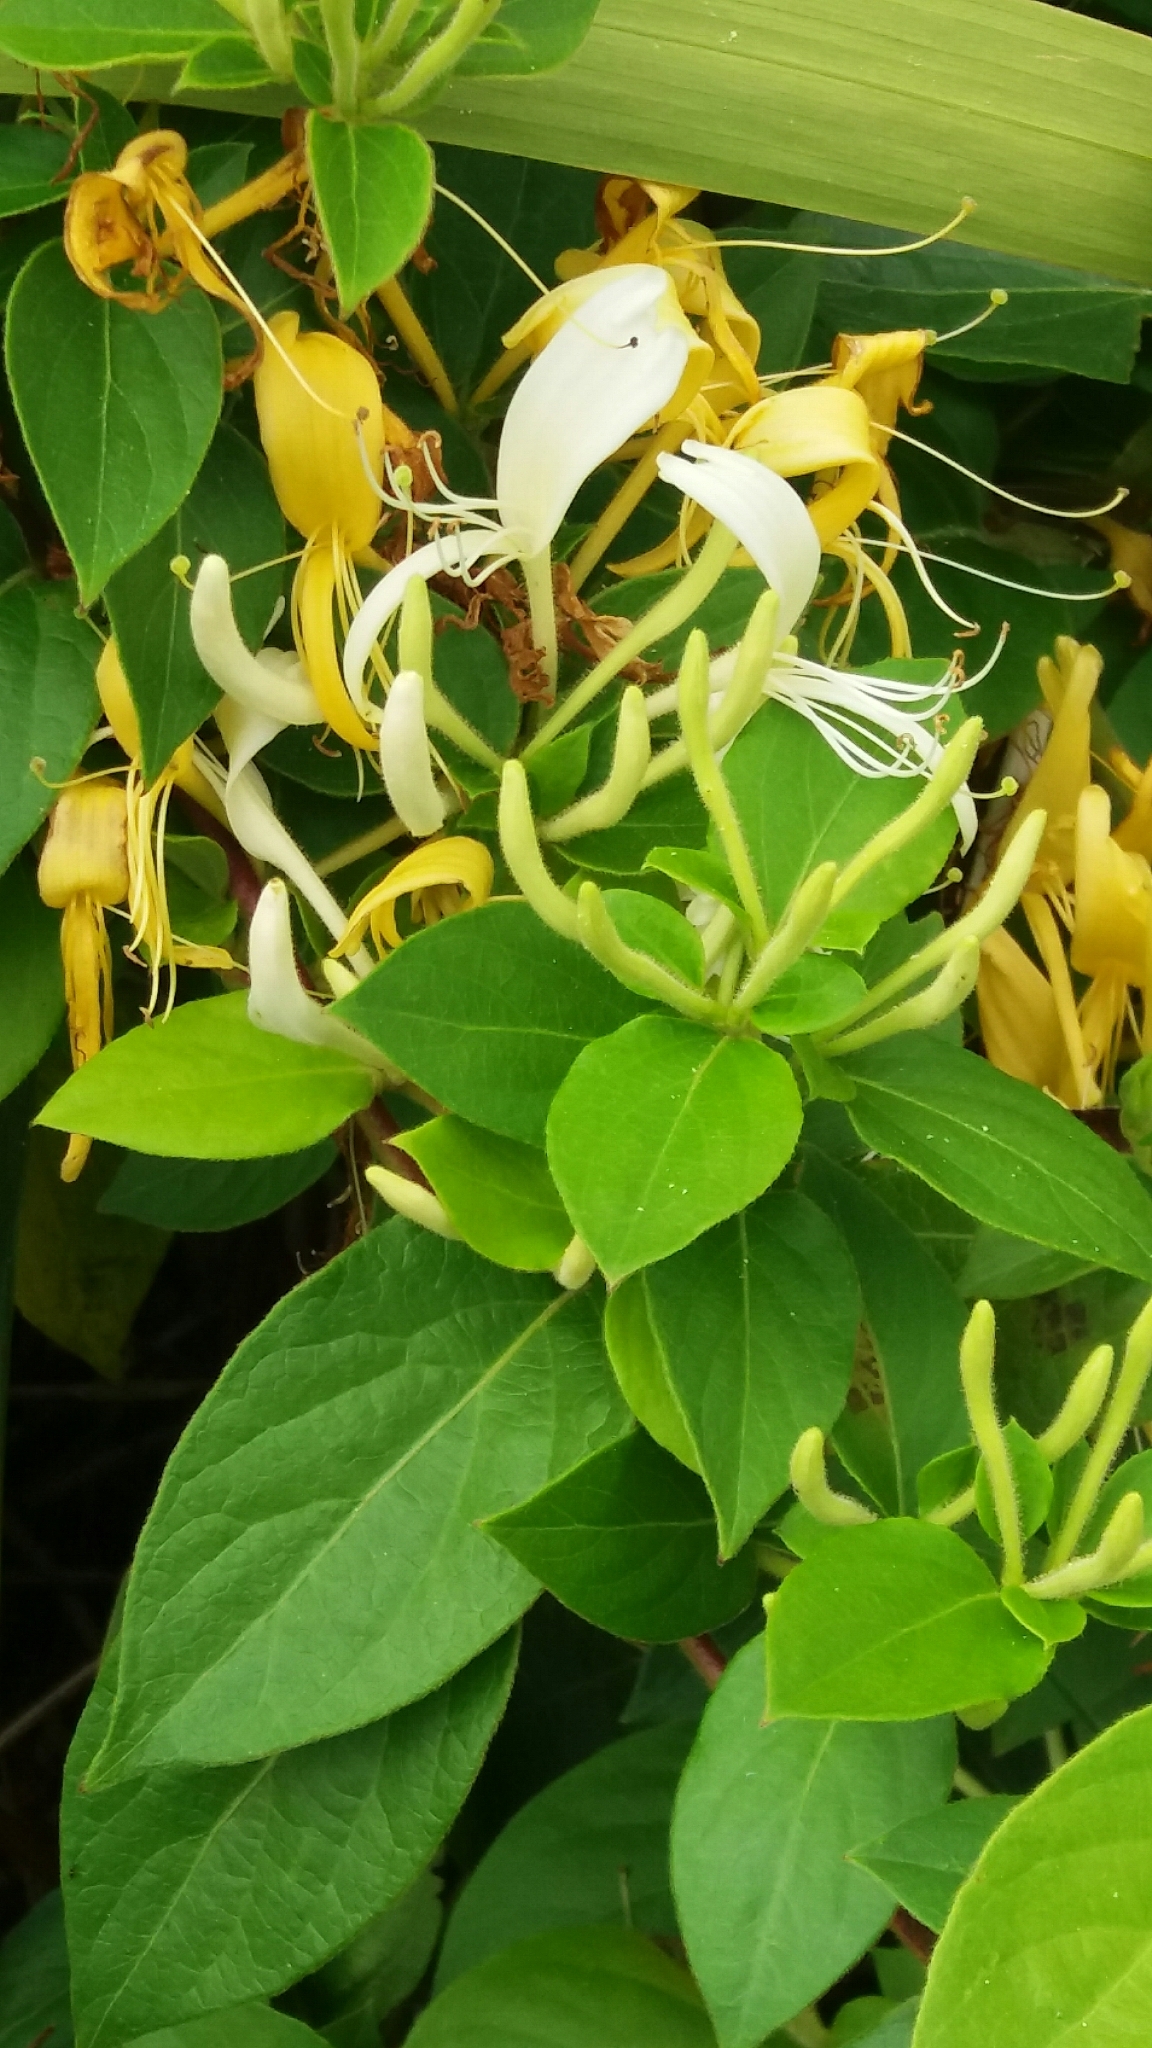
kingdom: Plantae
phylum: Tracheophyta
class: Magnoliopsida
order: Dipsacales
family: Caprifoliaceae
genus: Lonicera
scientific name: Lonicera japonica
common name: Japanese honeysuckle
